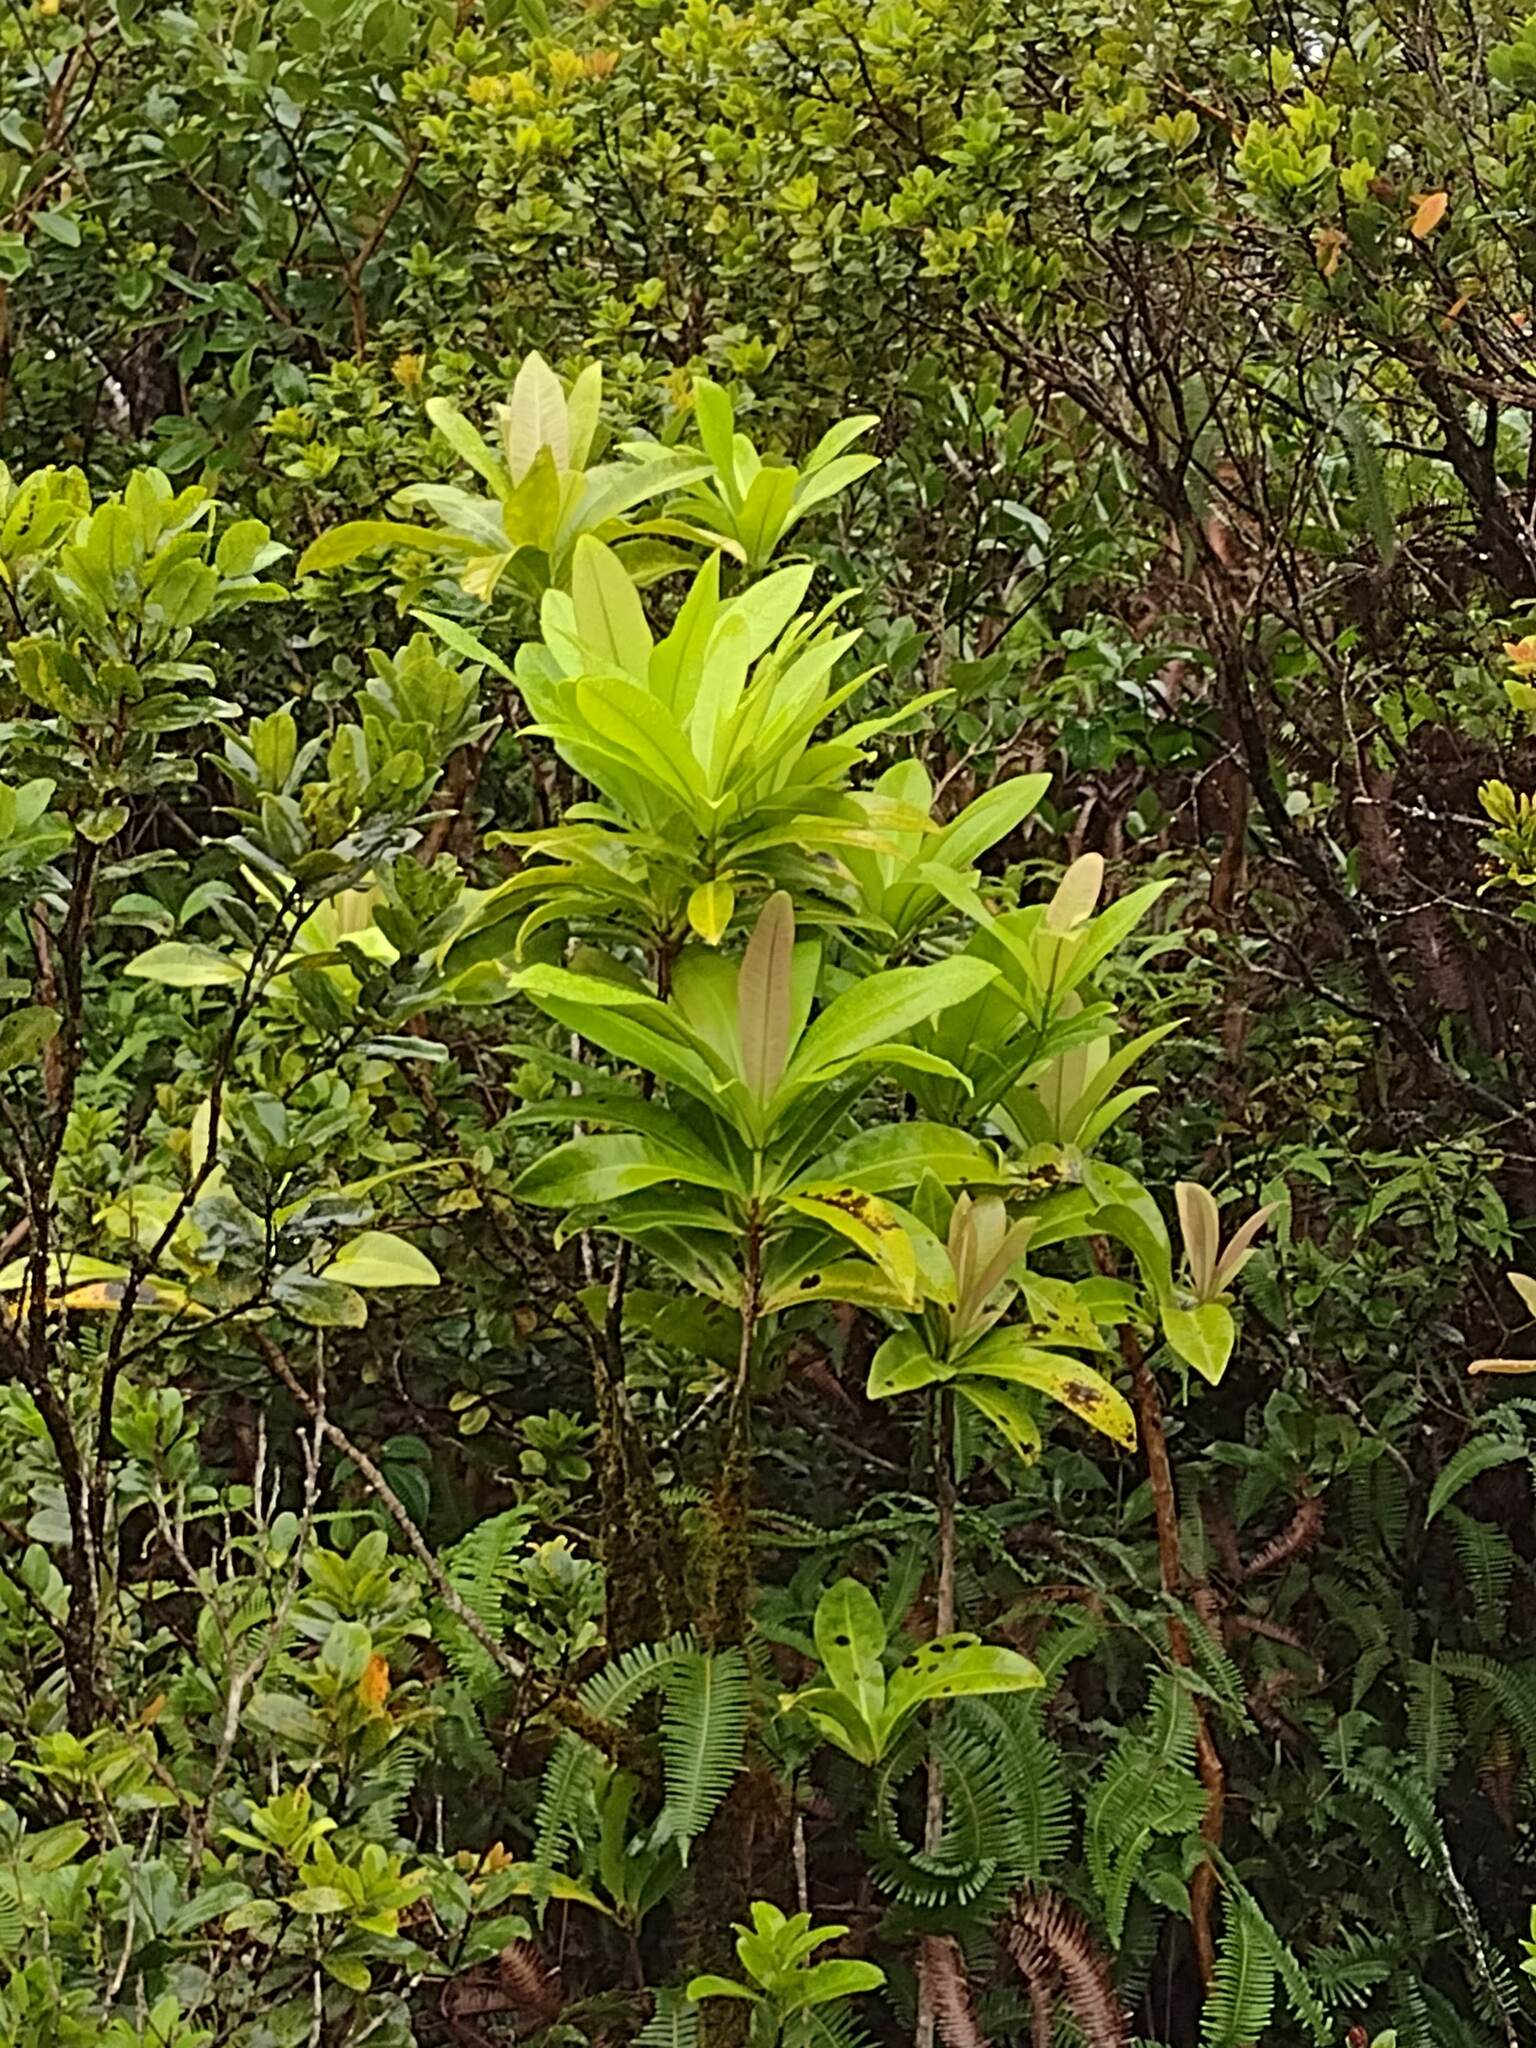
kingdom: Plantae
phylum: Tracheophyta
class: Magnoliopsida
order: Ericales
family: Primulaceae
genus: Myrsine
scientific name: Myrsine fernseei
